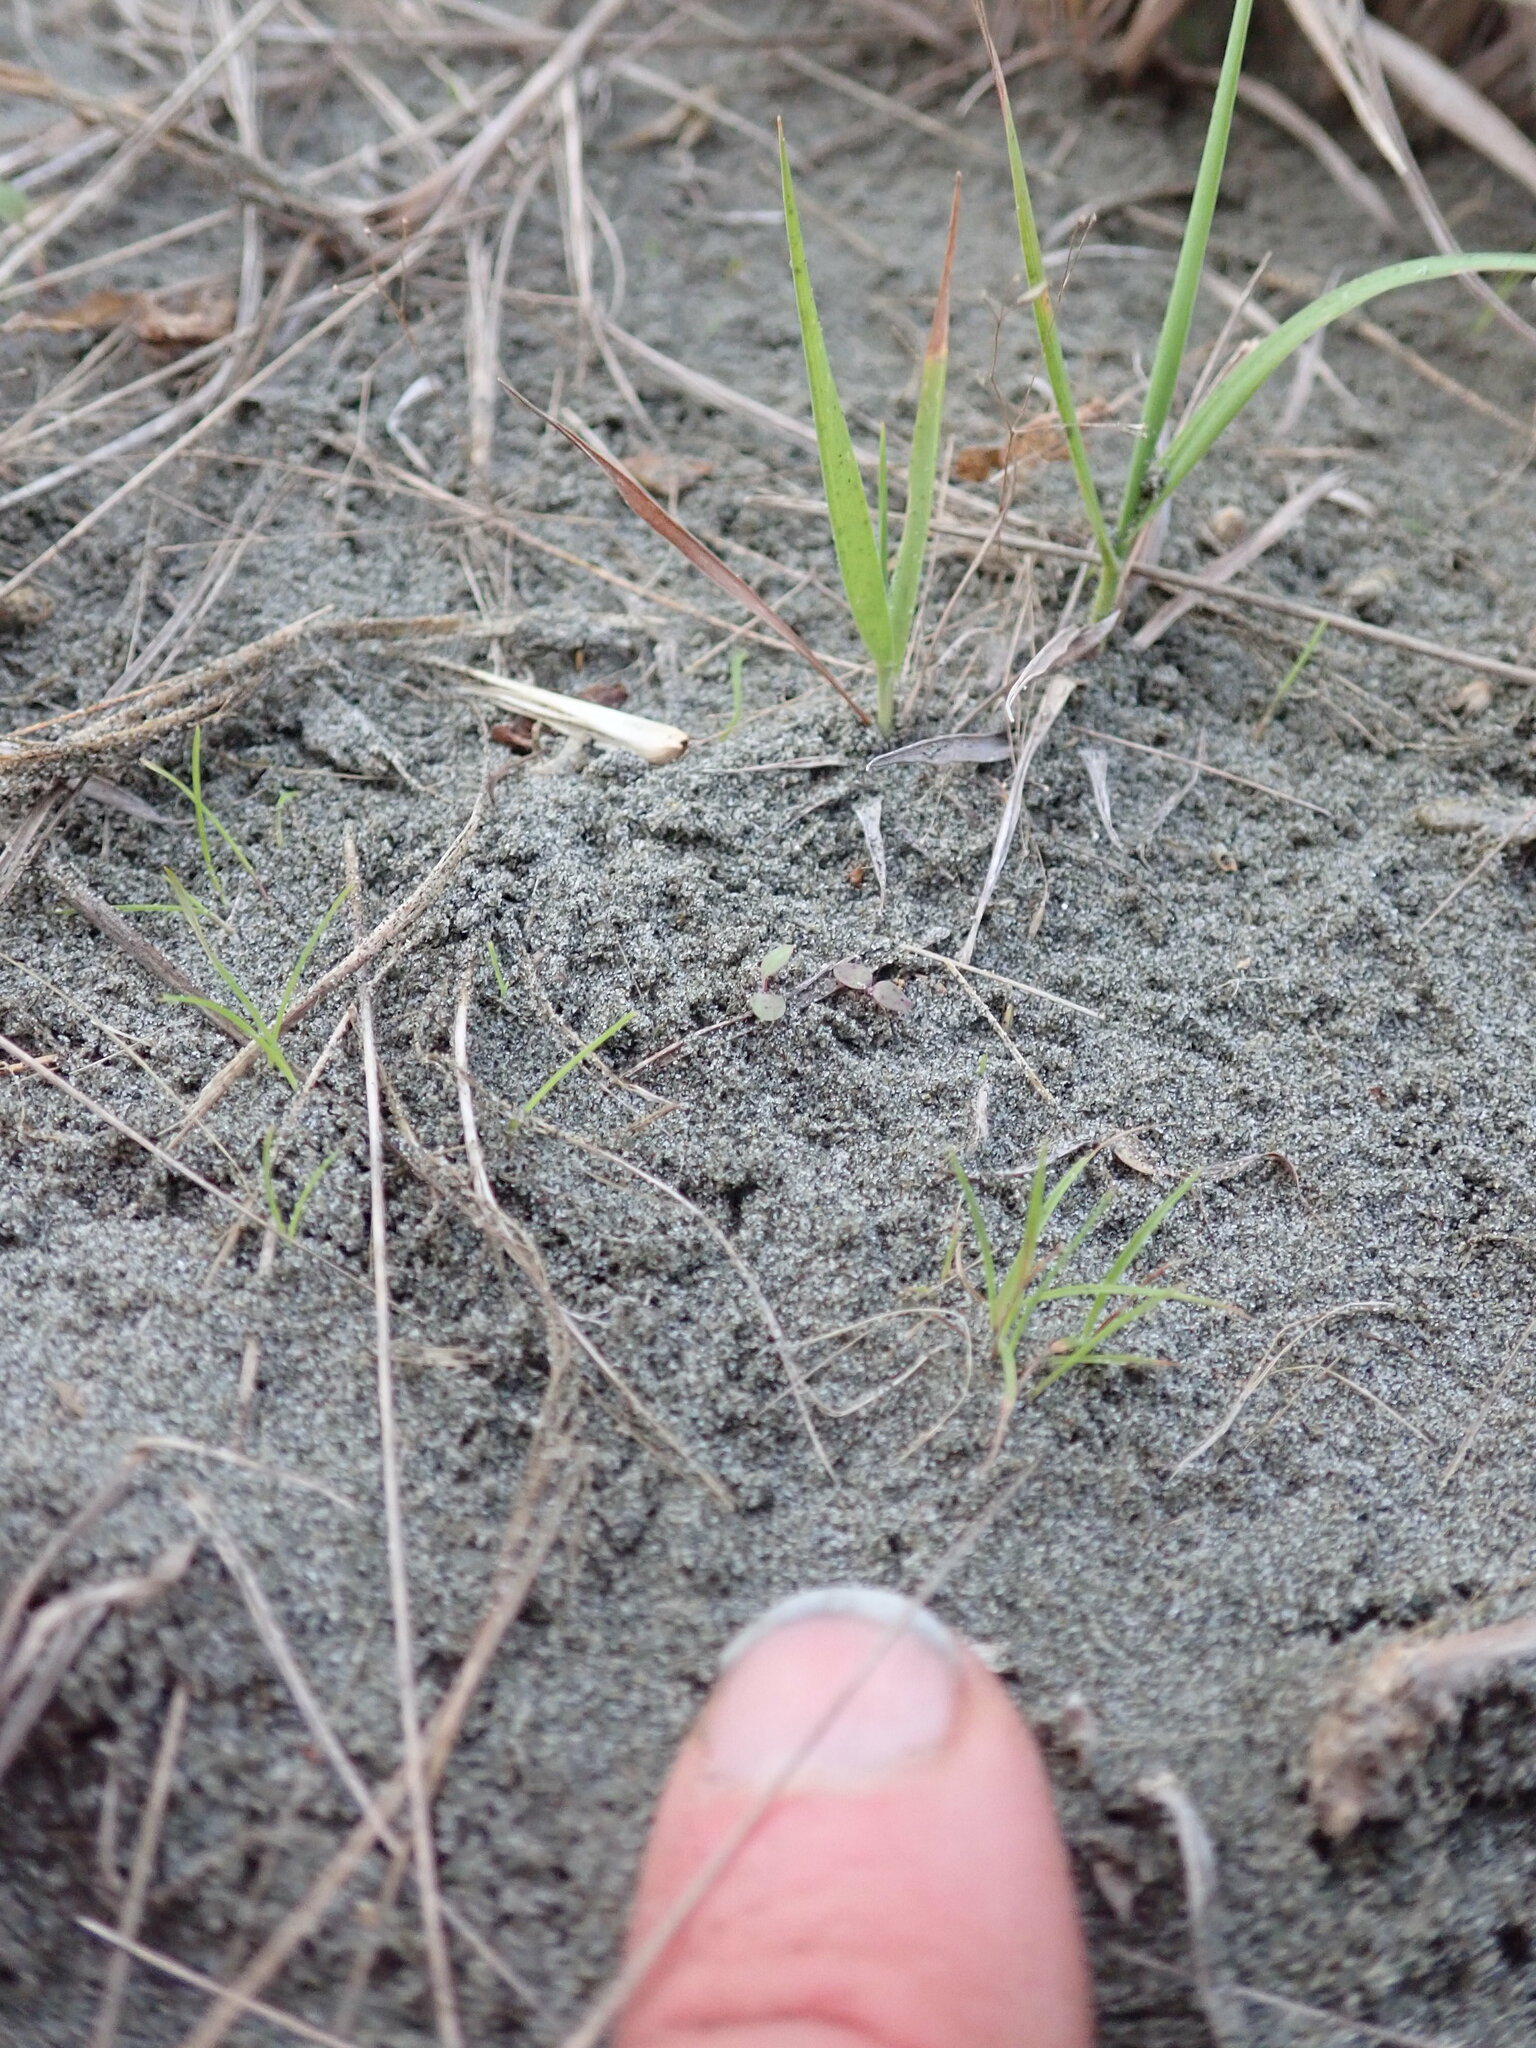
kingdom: Plantae
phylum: Tracheophyta
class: Liliopsida
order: Poales
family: Poaceae
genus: Lachnagrostis
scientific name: Lachnagrostis billardierei
